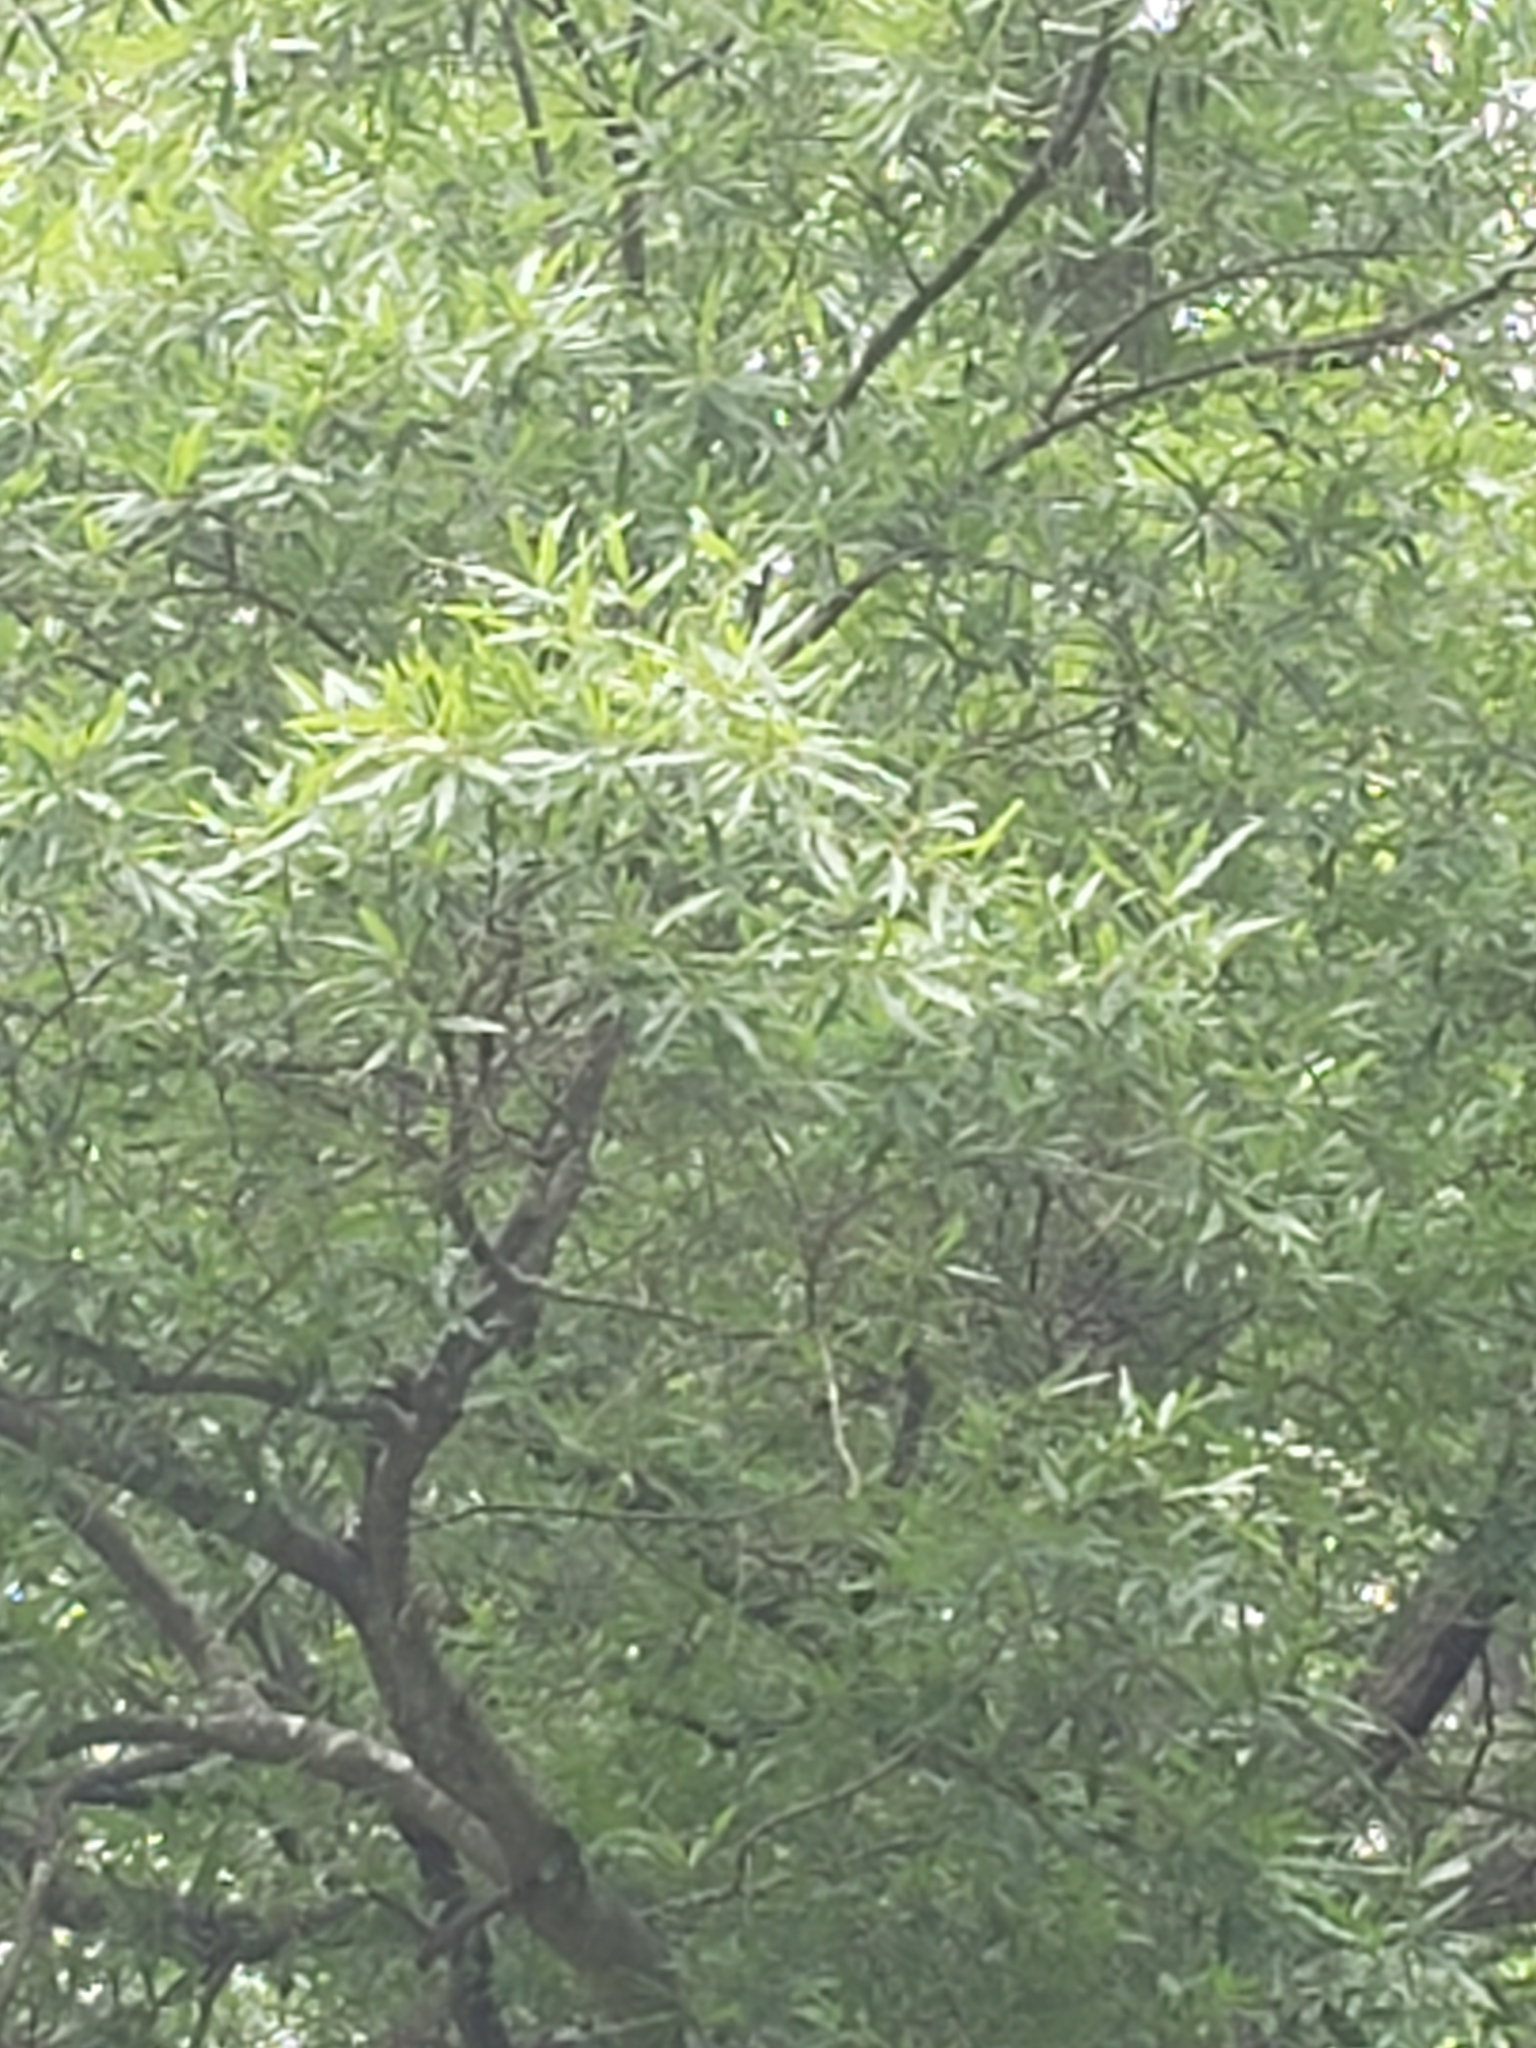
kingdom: Plantae
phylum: Tracheophyta
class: Magnoliopsida
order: Fagales
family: Fagaceae
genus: Quercus
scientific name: Quercus phellos
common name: Willow oak
